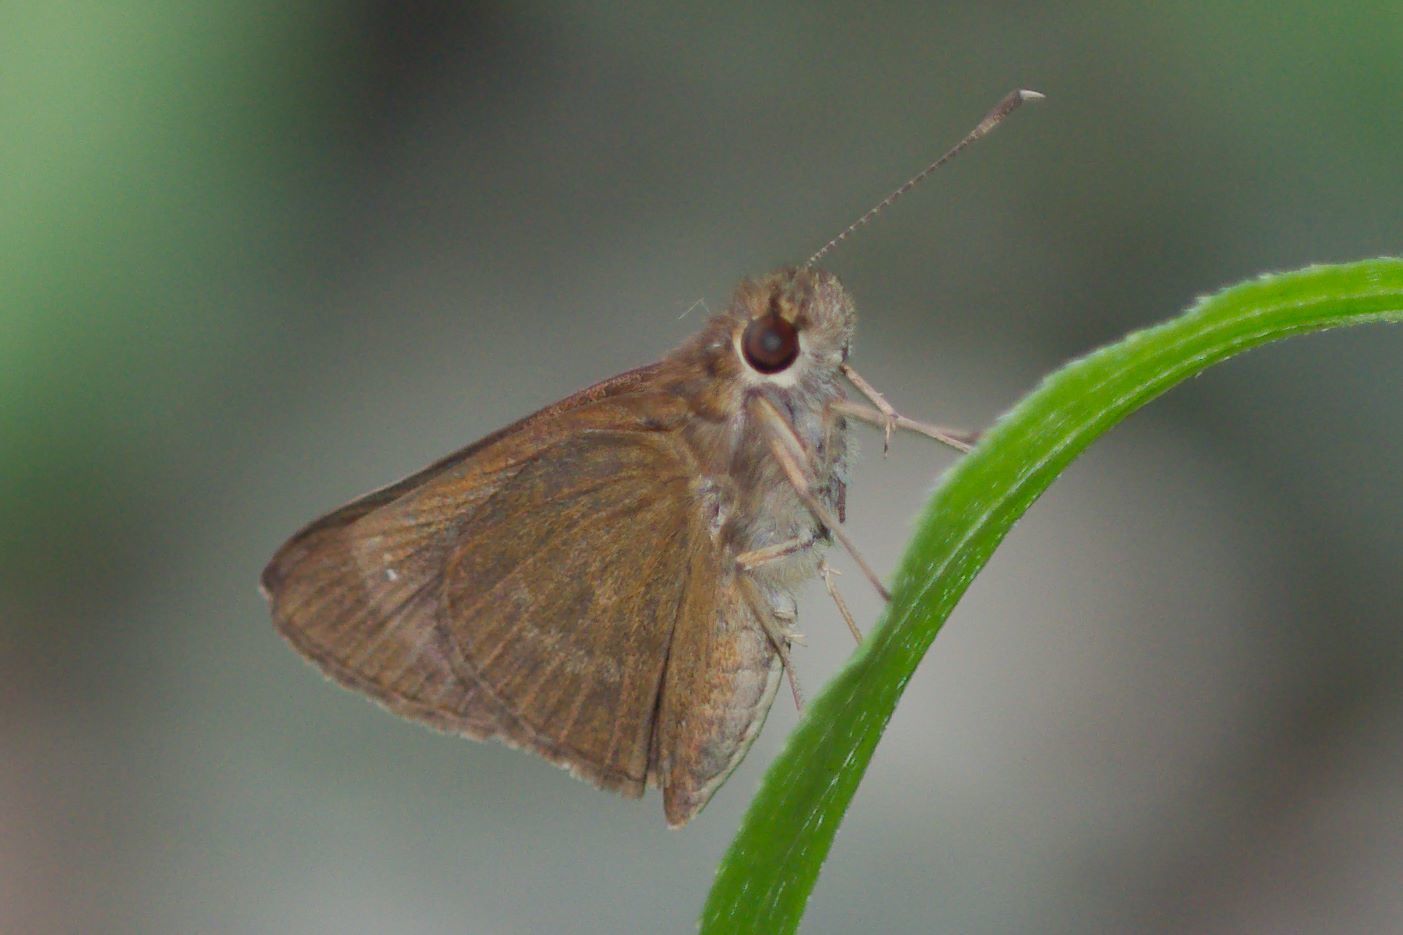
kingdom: Animalia
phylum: Arthropoda
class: Insecta
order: Lepidoptera
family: Hesperiidae
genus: Cymaenes
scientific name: Cymaenes tripunctus
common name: Dingy dotted skipper
